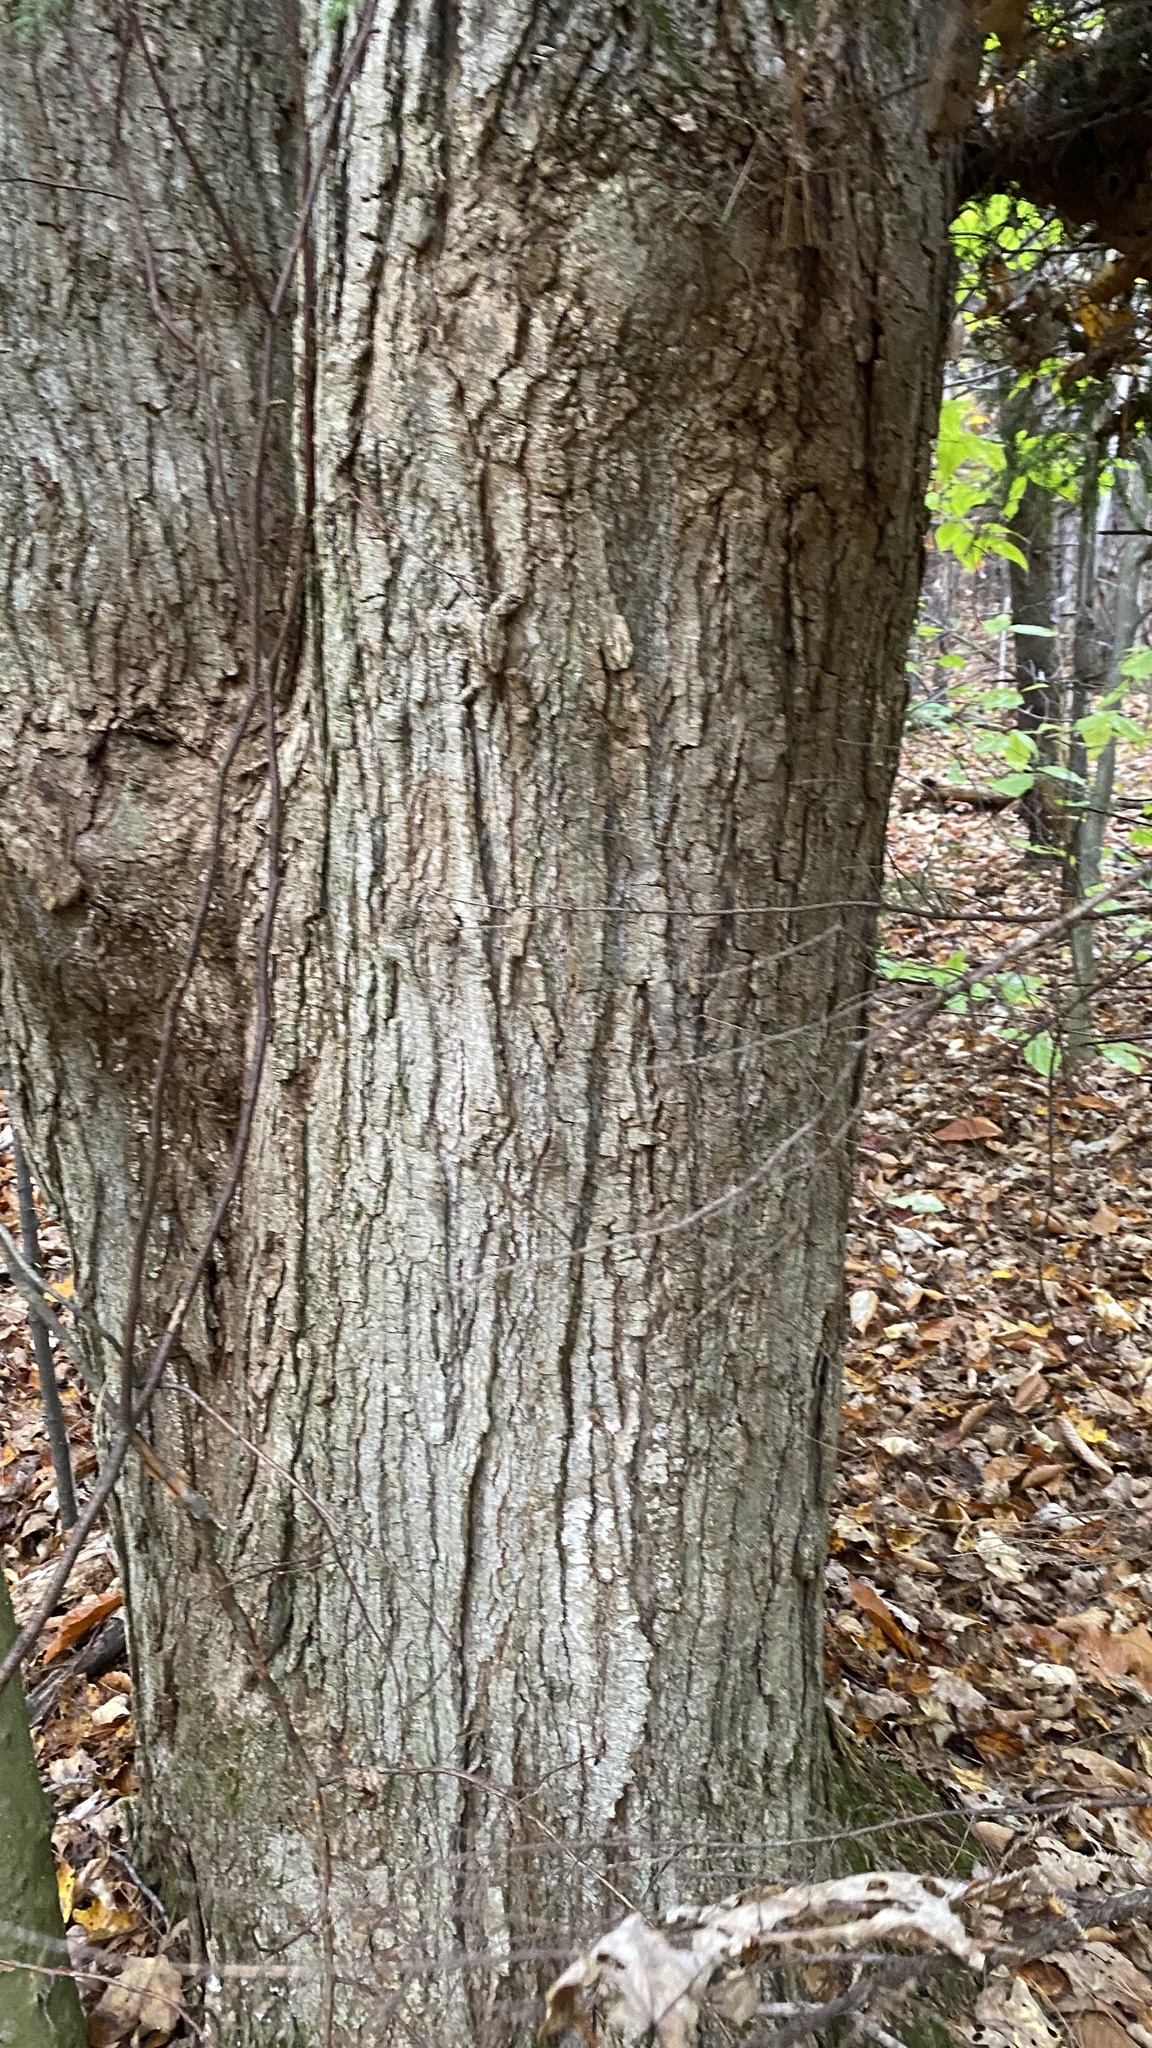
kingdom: Plantae
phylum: Tracheophyta
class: Magnoliopsida
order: Sapindales
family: Sapindaceae
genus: Acer
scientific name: Acer saccharum
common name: Sugar maple
